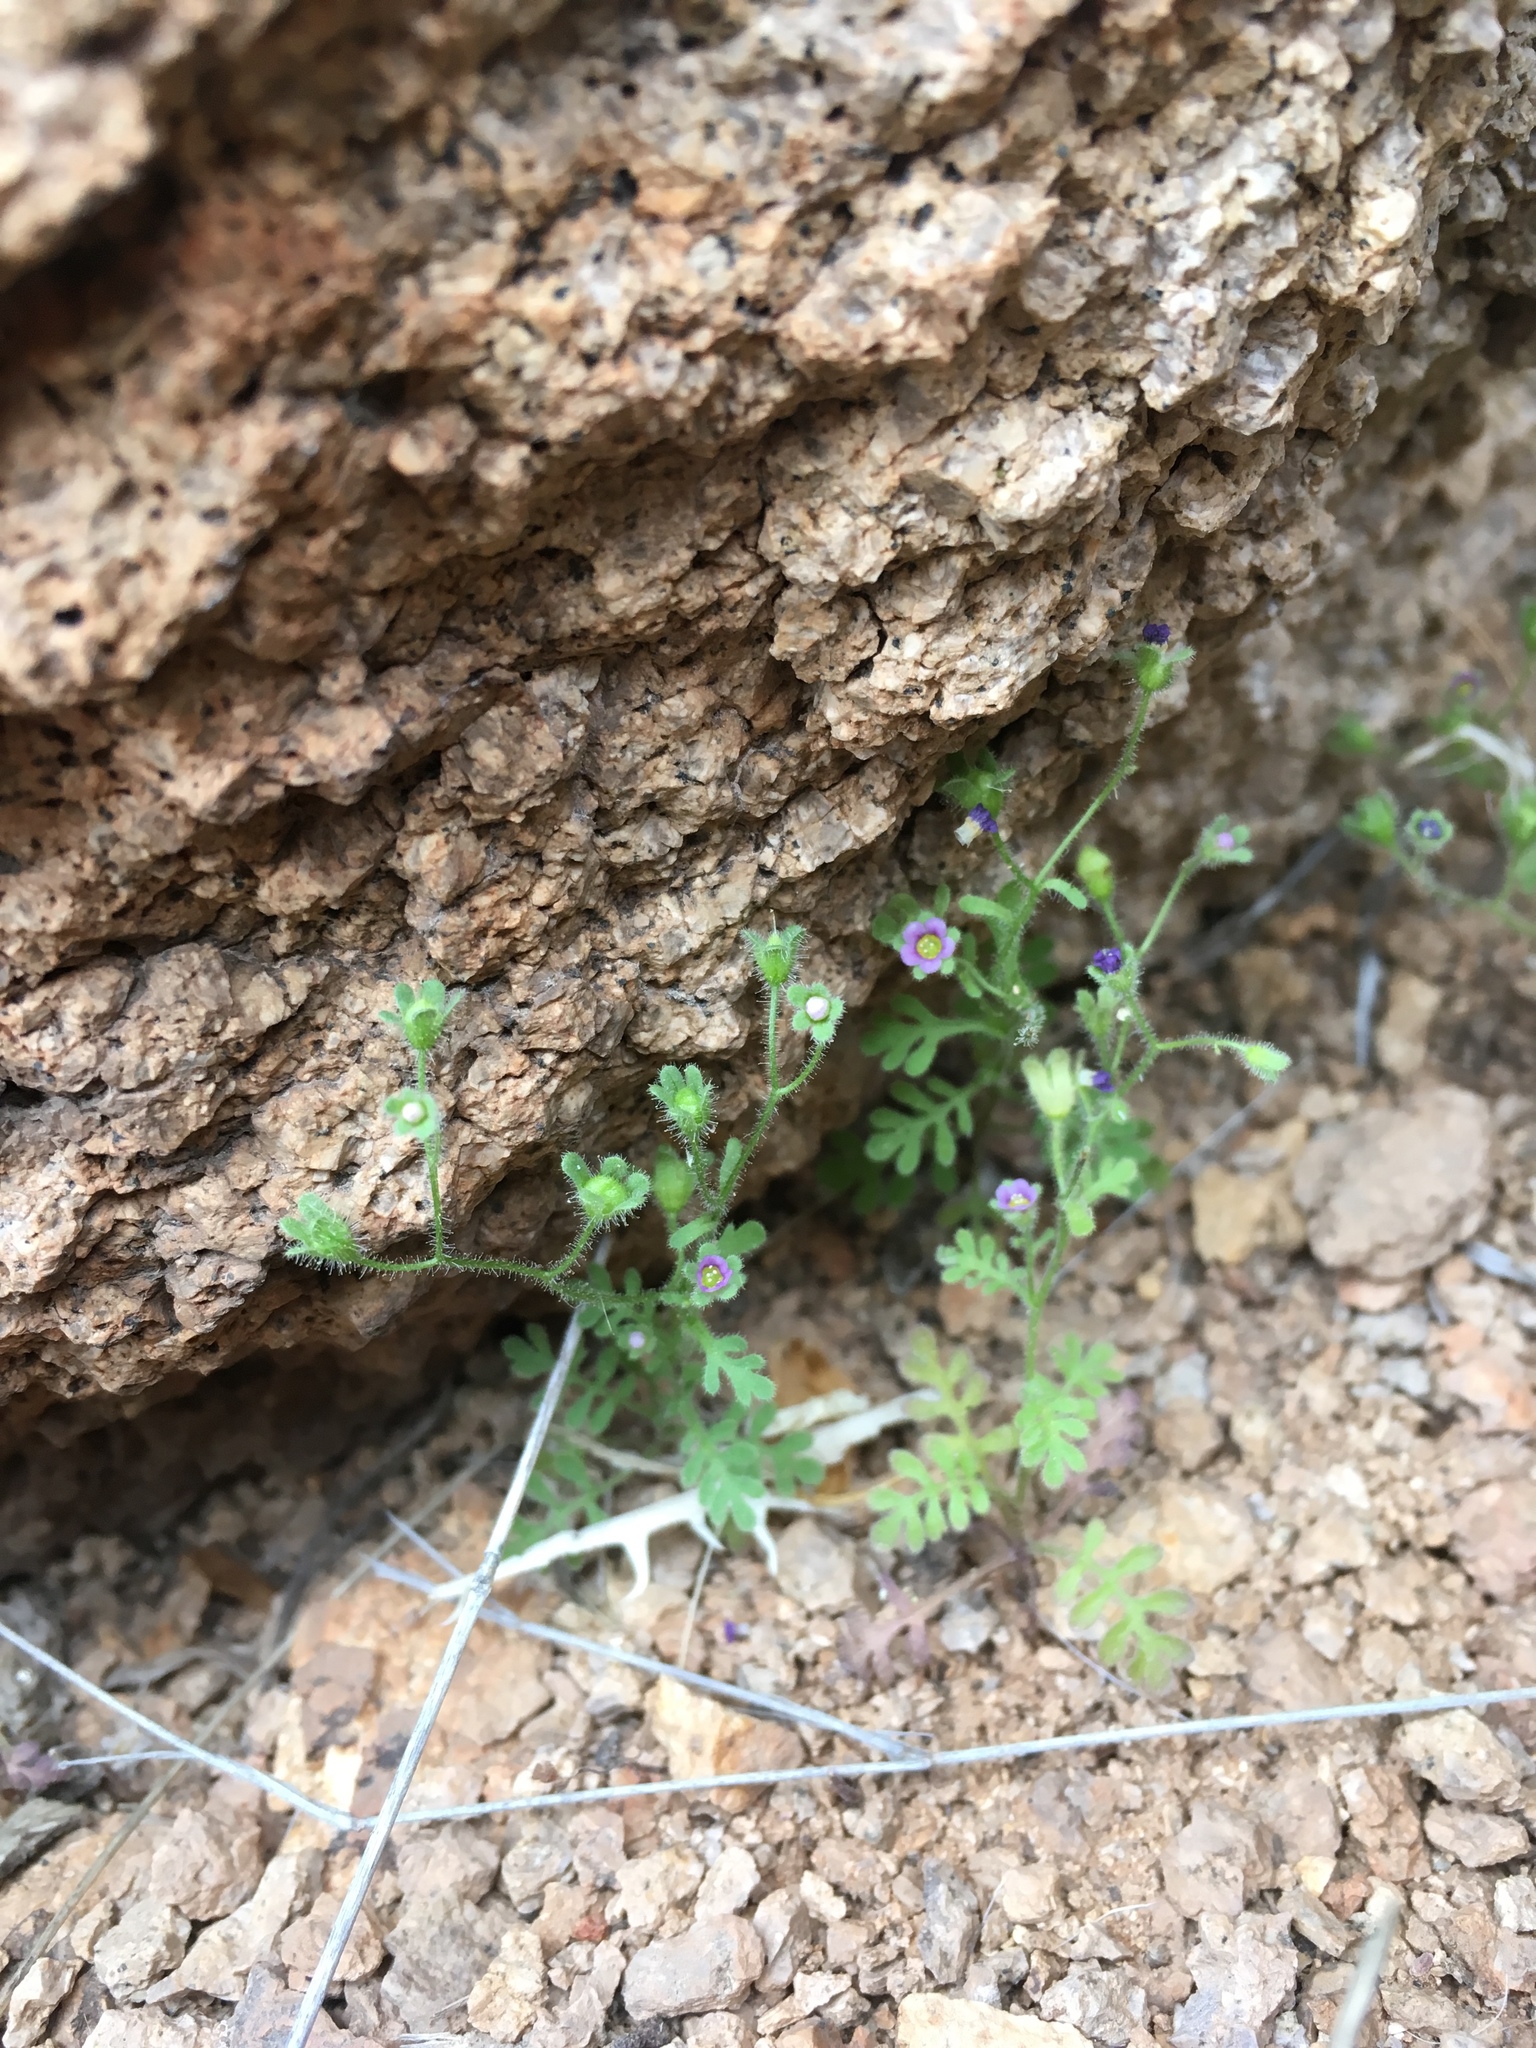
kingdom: Plantae
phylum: Tracheophyta
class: Magnoliopsida
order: Boraginales
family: Hydrophyllaceae
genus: Eucrypta
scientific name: Eucrypta micrantha
